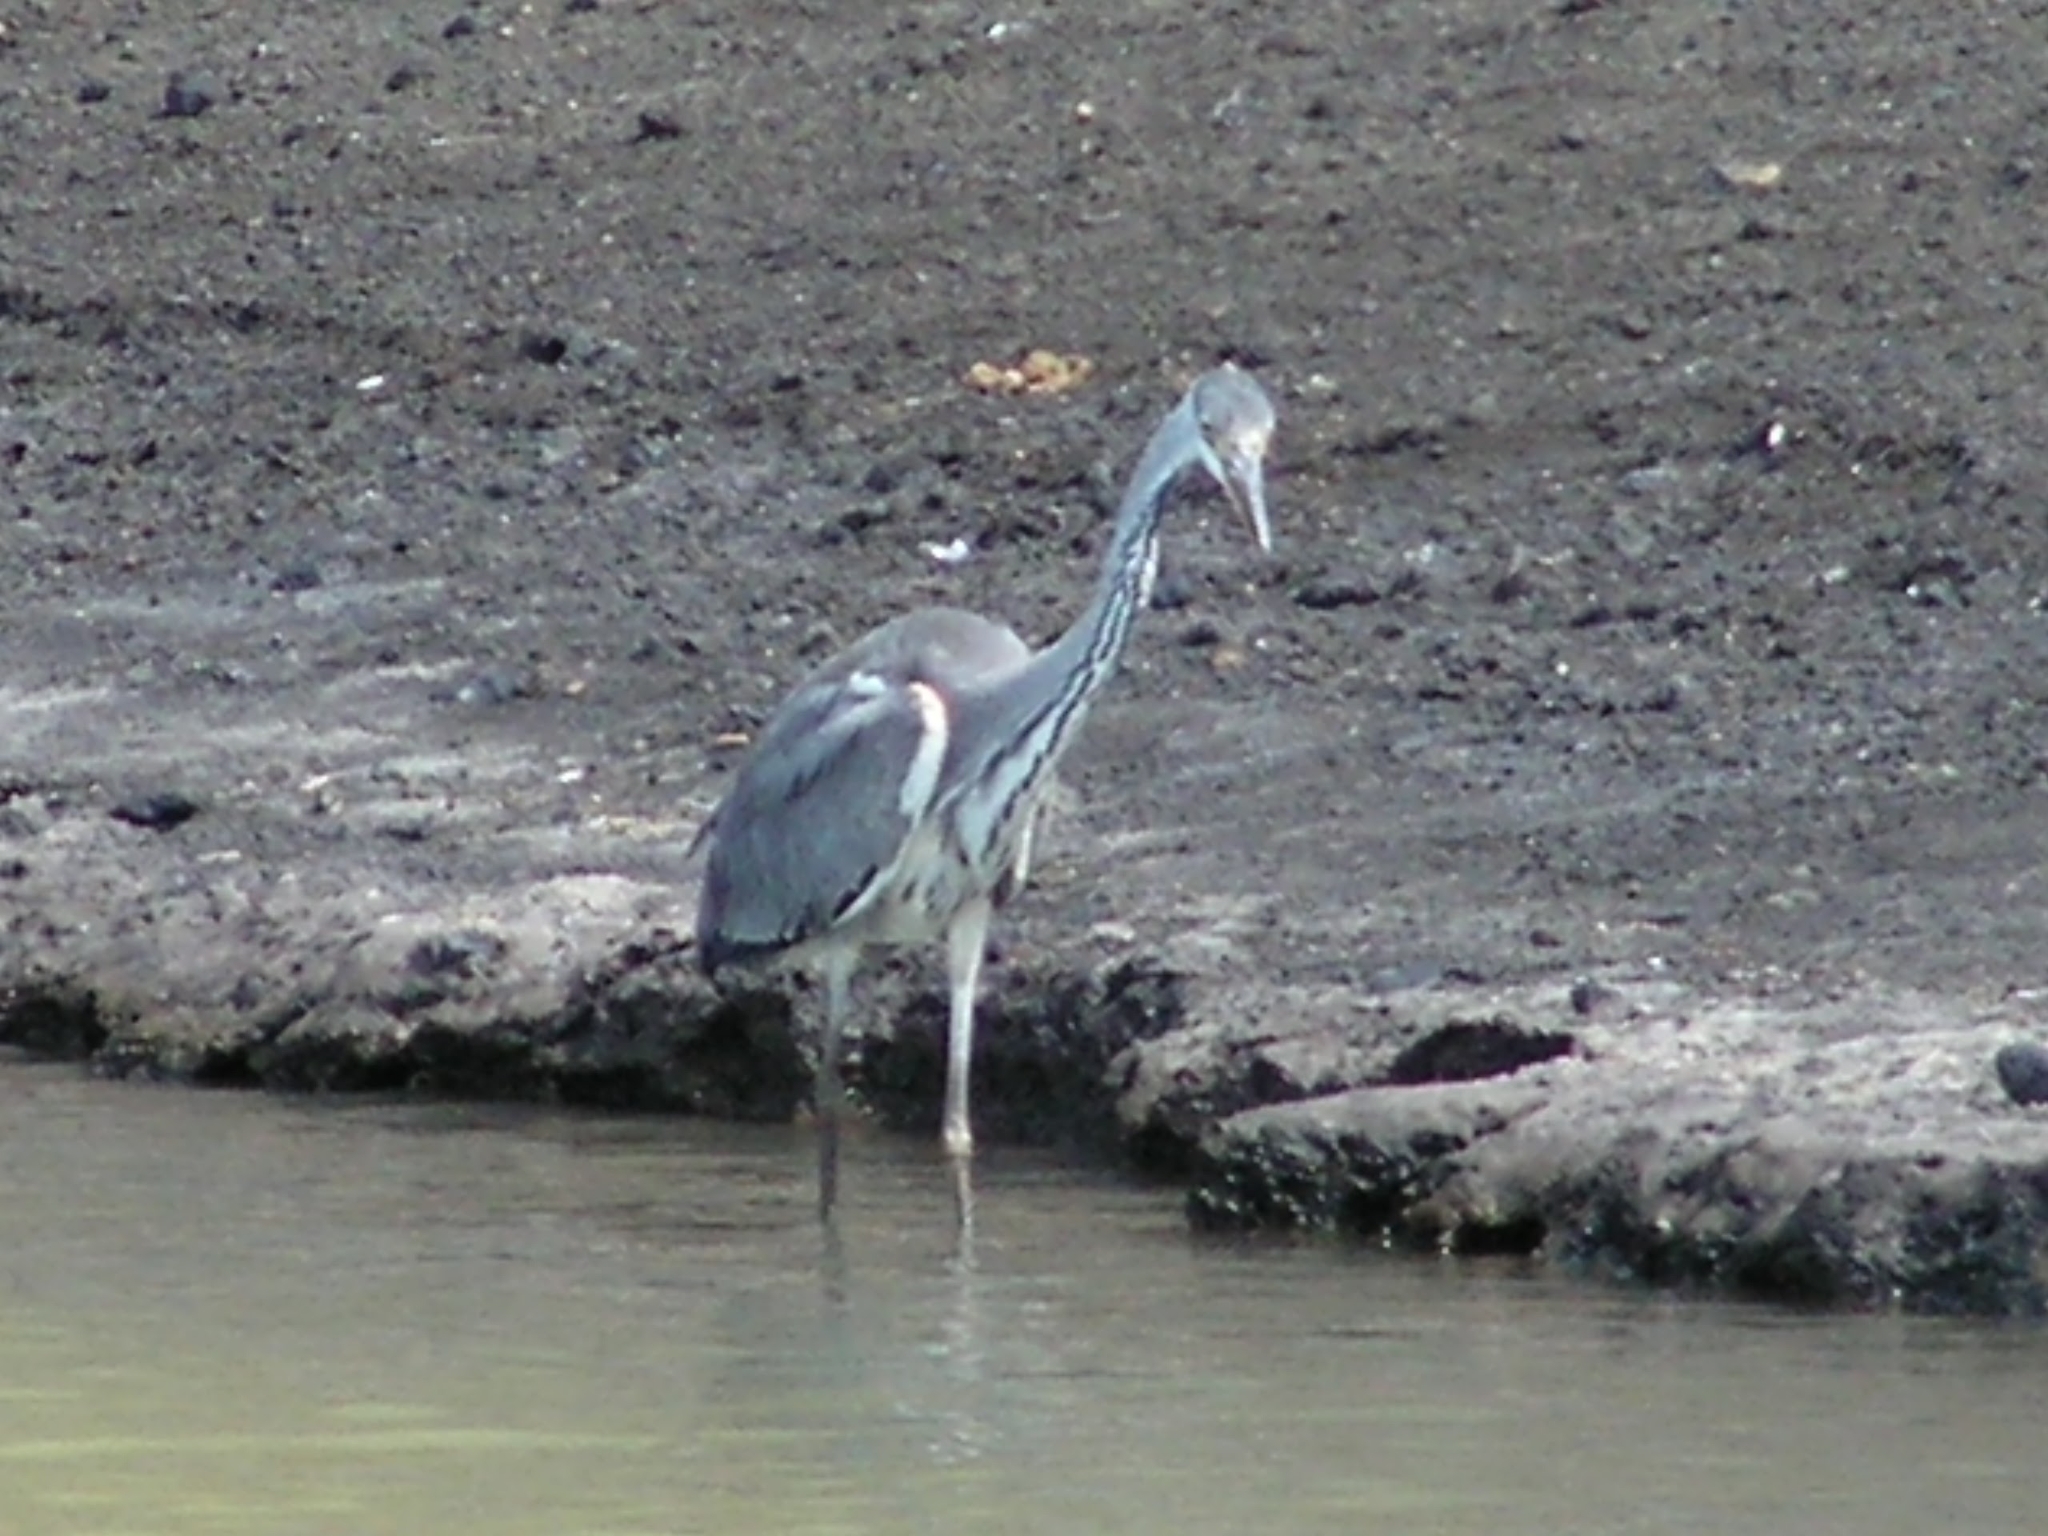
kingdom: Animalia
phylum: Chordata
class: Aves
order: Pelecaniformes
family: Ardeidae
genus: Ardea
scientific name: Ardea cinerea
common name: Grey heron
